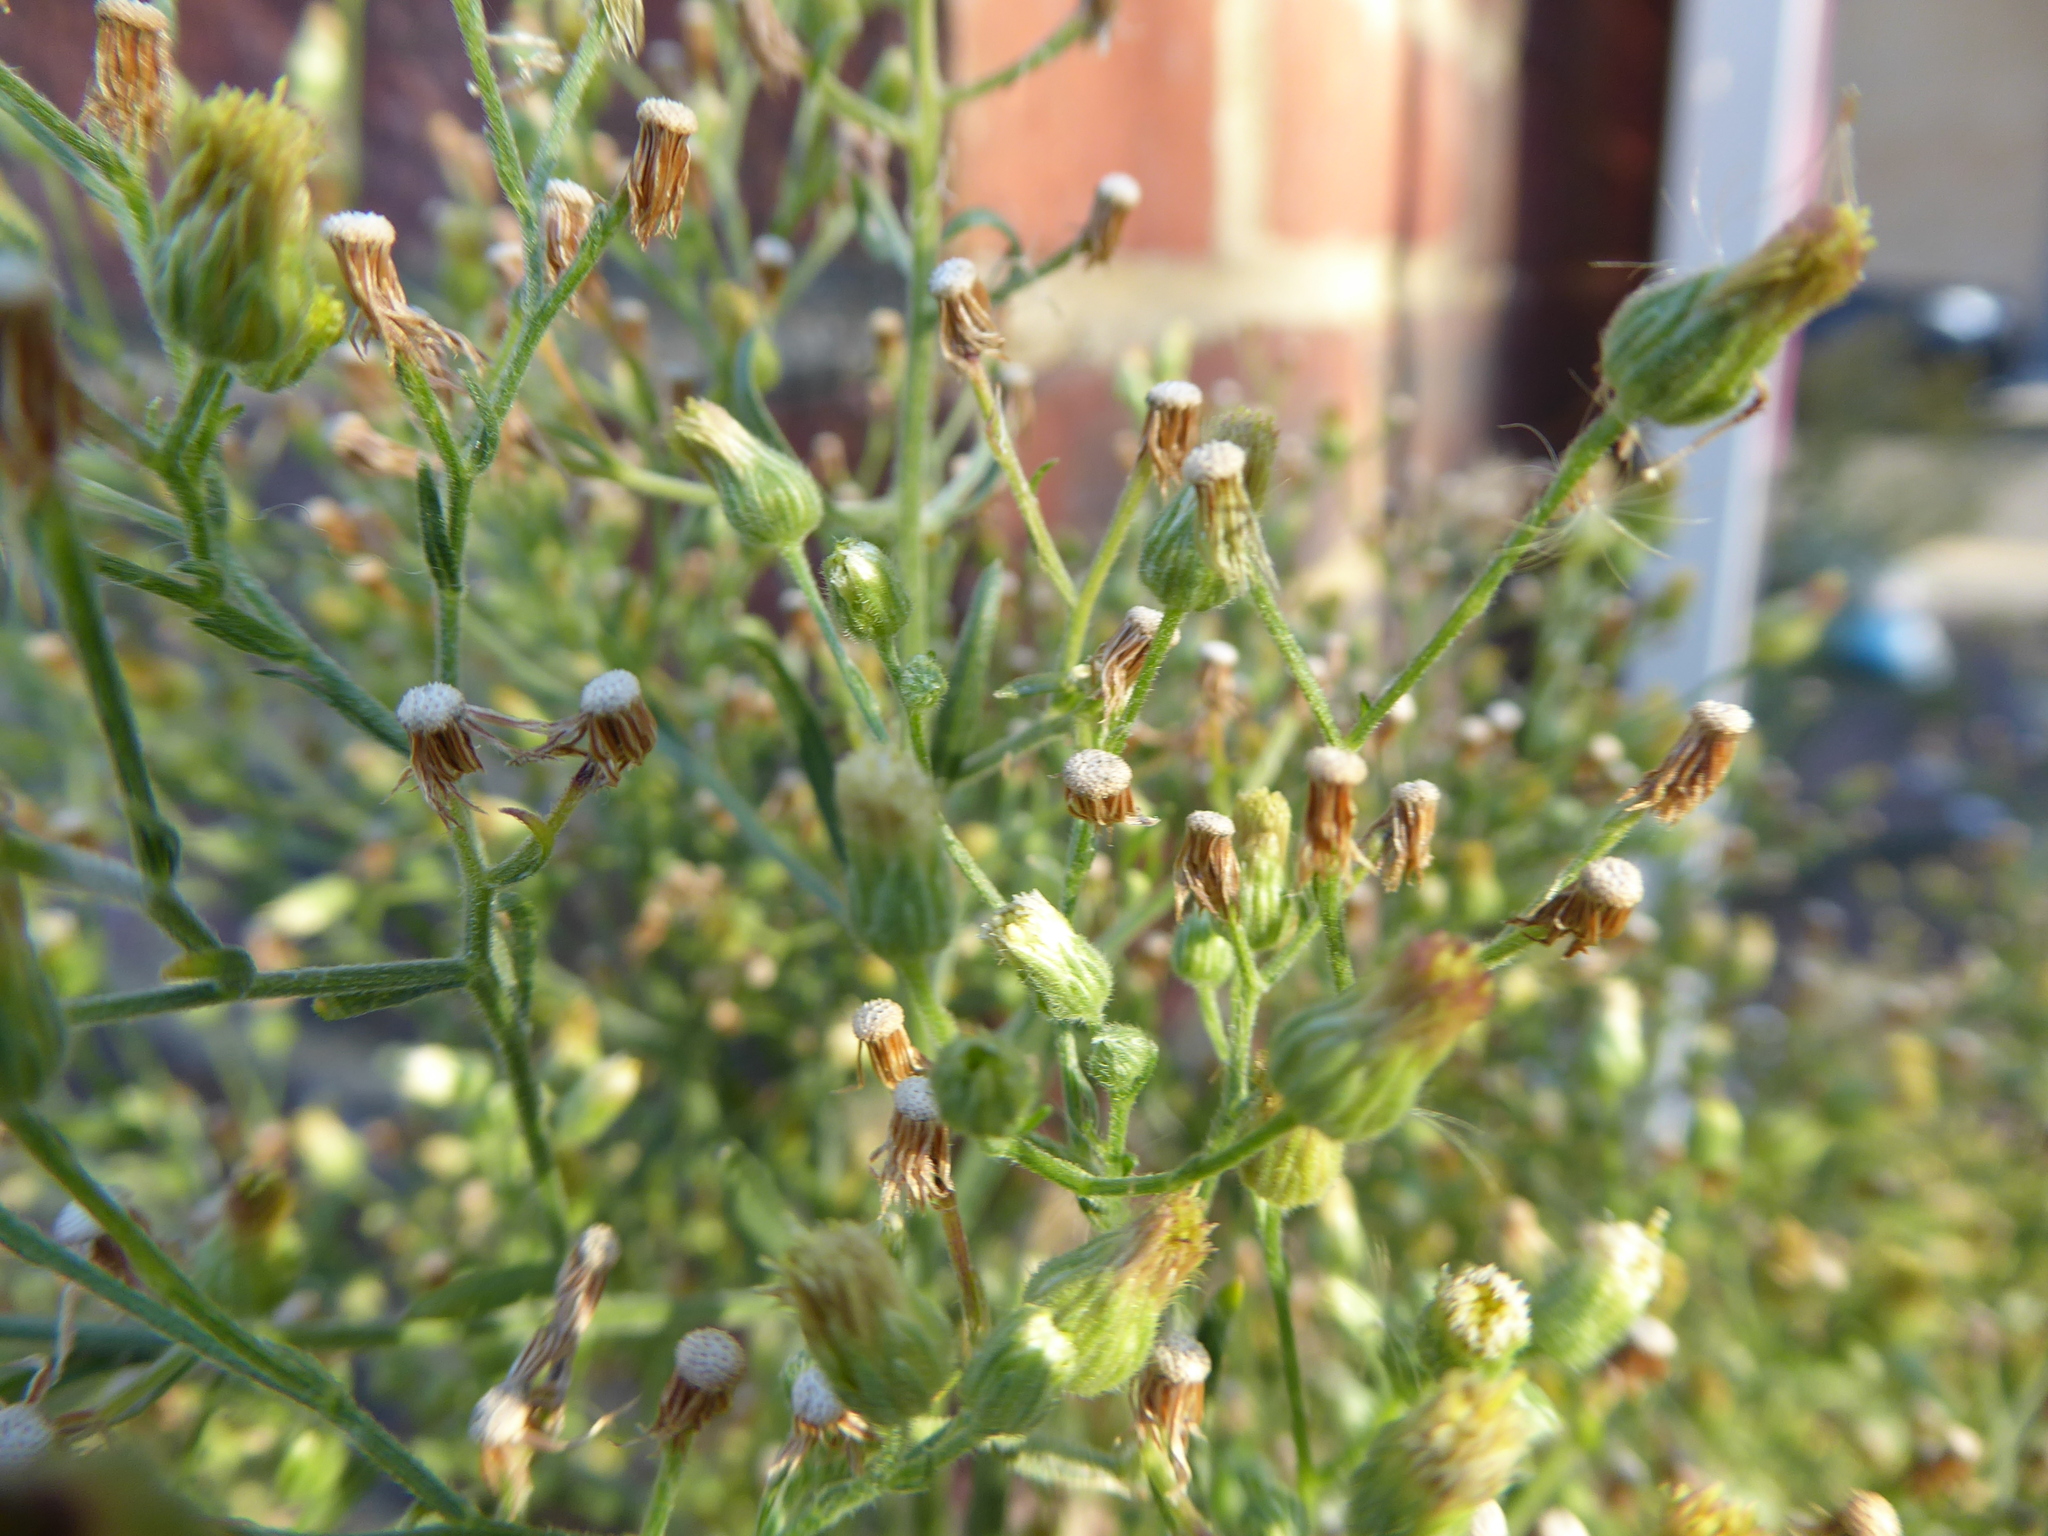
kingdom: Plantae
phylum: Tracheophyta
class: Magnoliopsida
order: Asterales
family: Asteraceae
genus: Erigeron
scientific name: Erigeron sumatrensis
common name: Daisy
